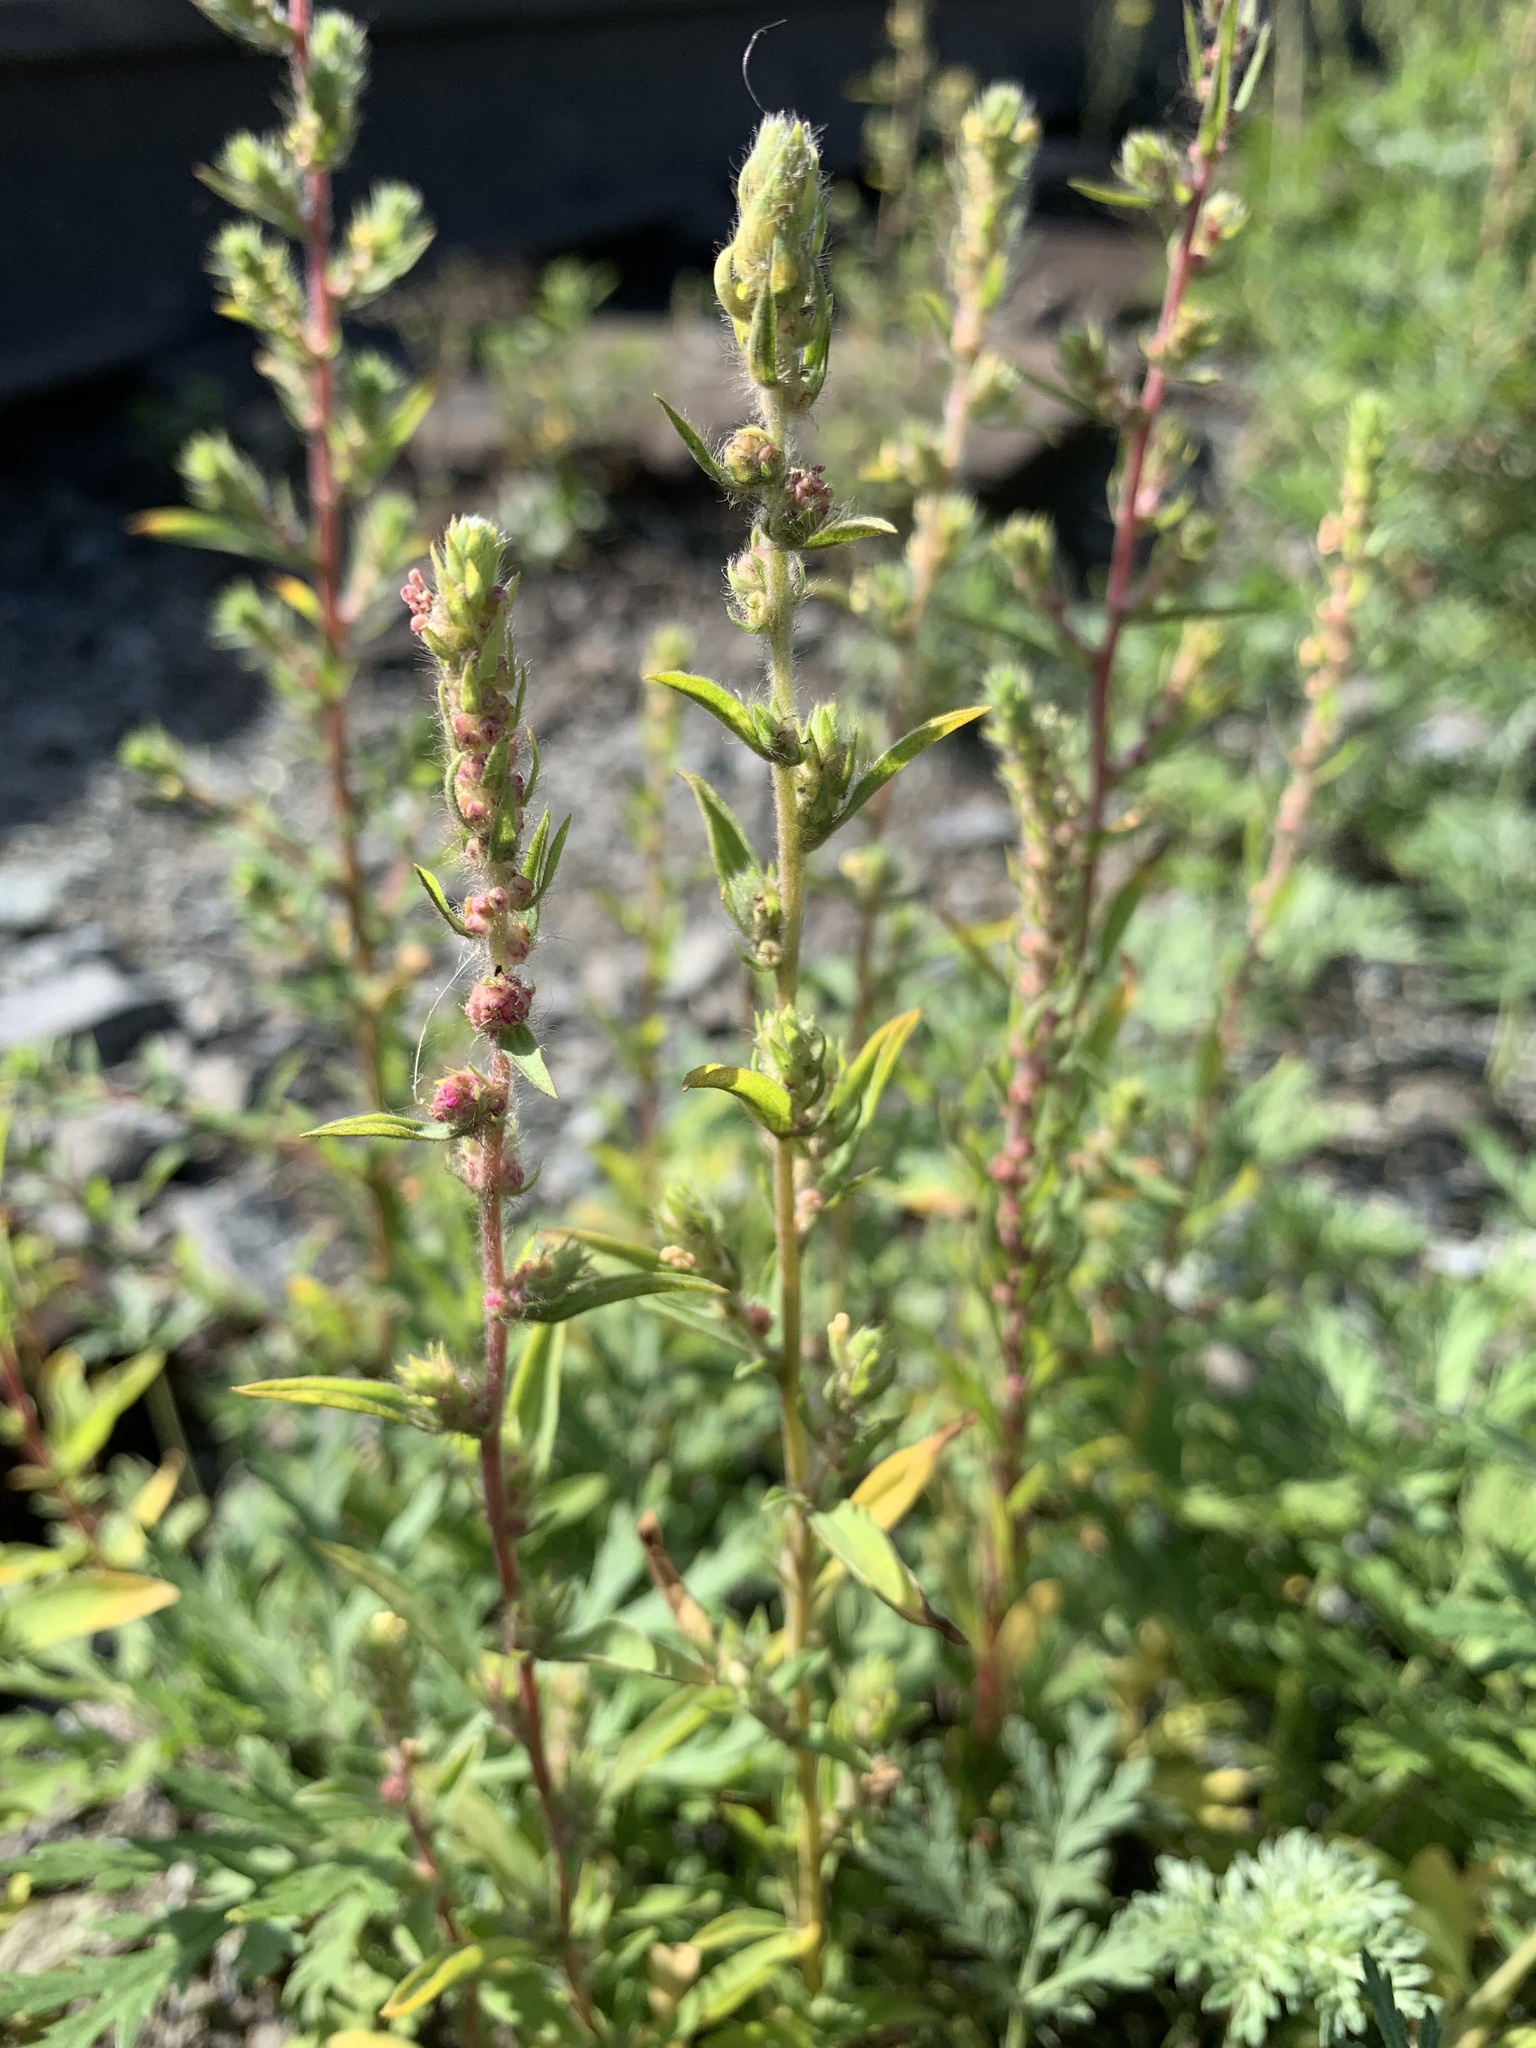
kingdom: Plantae
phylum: Tracheophyta
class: Magnoliopsida
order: Caryophyllales
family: Amaranthaceae
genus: Bassia
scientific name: Bassia scoparia
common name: Belvedere
